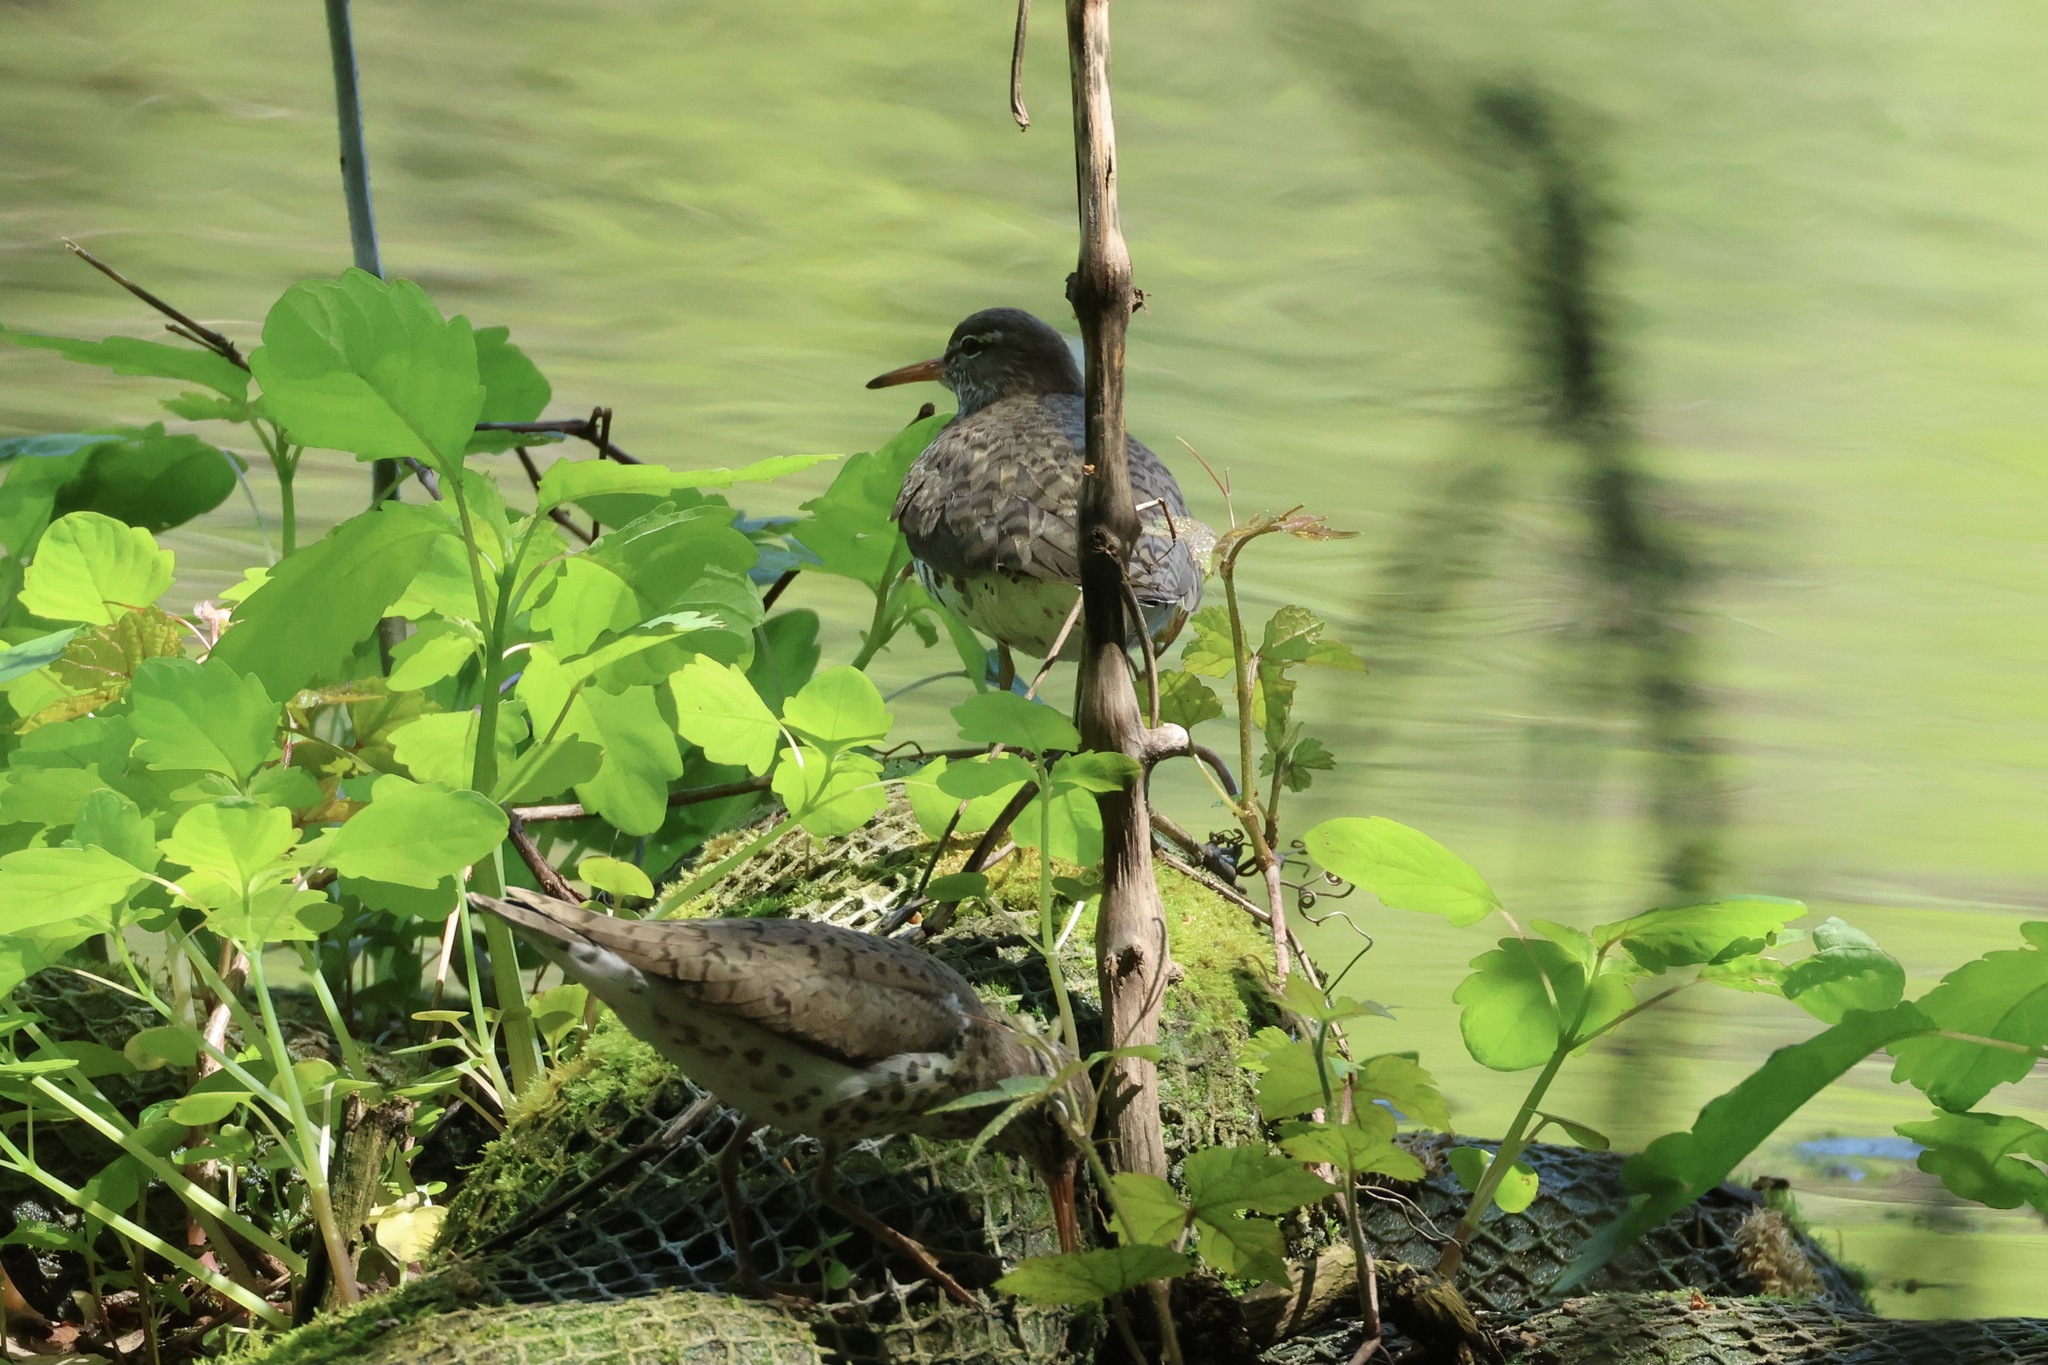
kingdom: Animalia
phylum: Chordata
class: Aves
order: Charadriiformes
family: Scolopacidae
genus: Actitis
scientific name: Actitis macularius
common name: Spotted sandpiper
